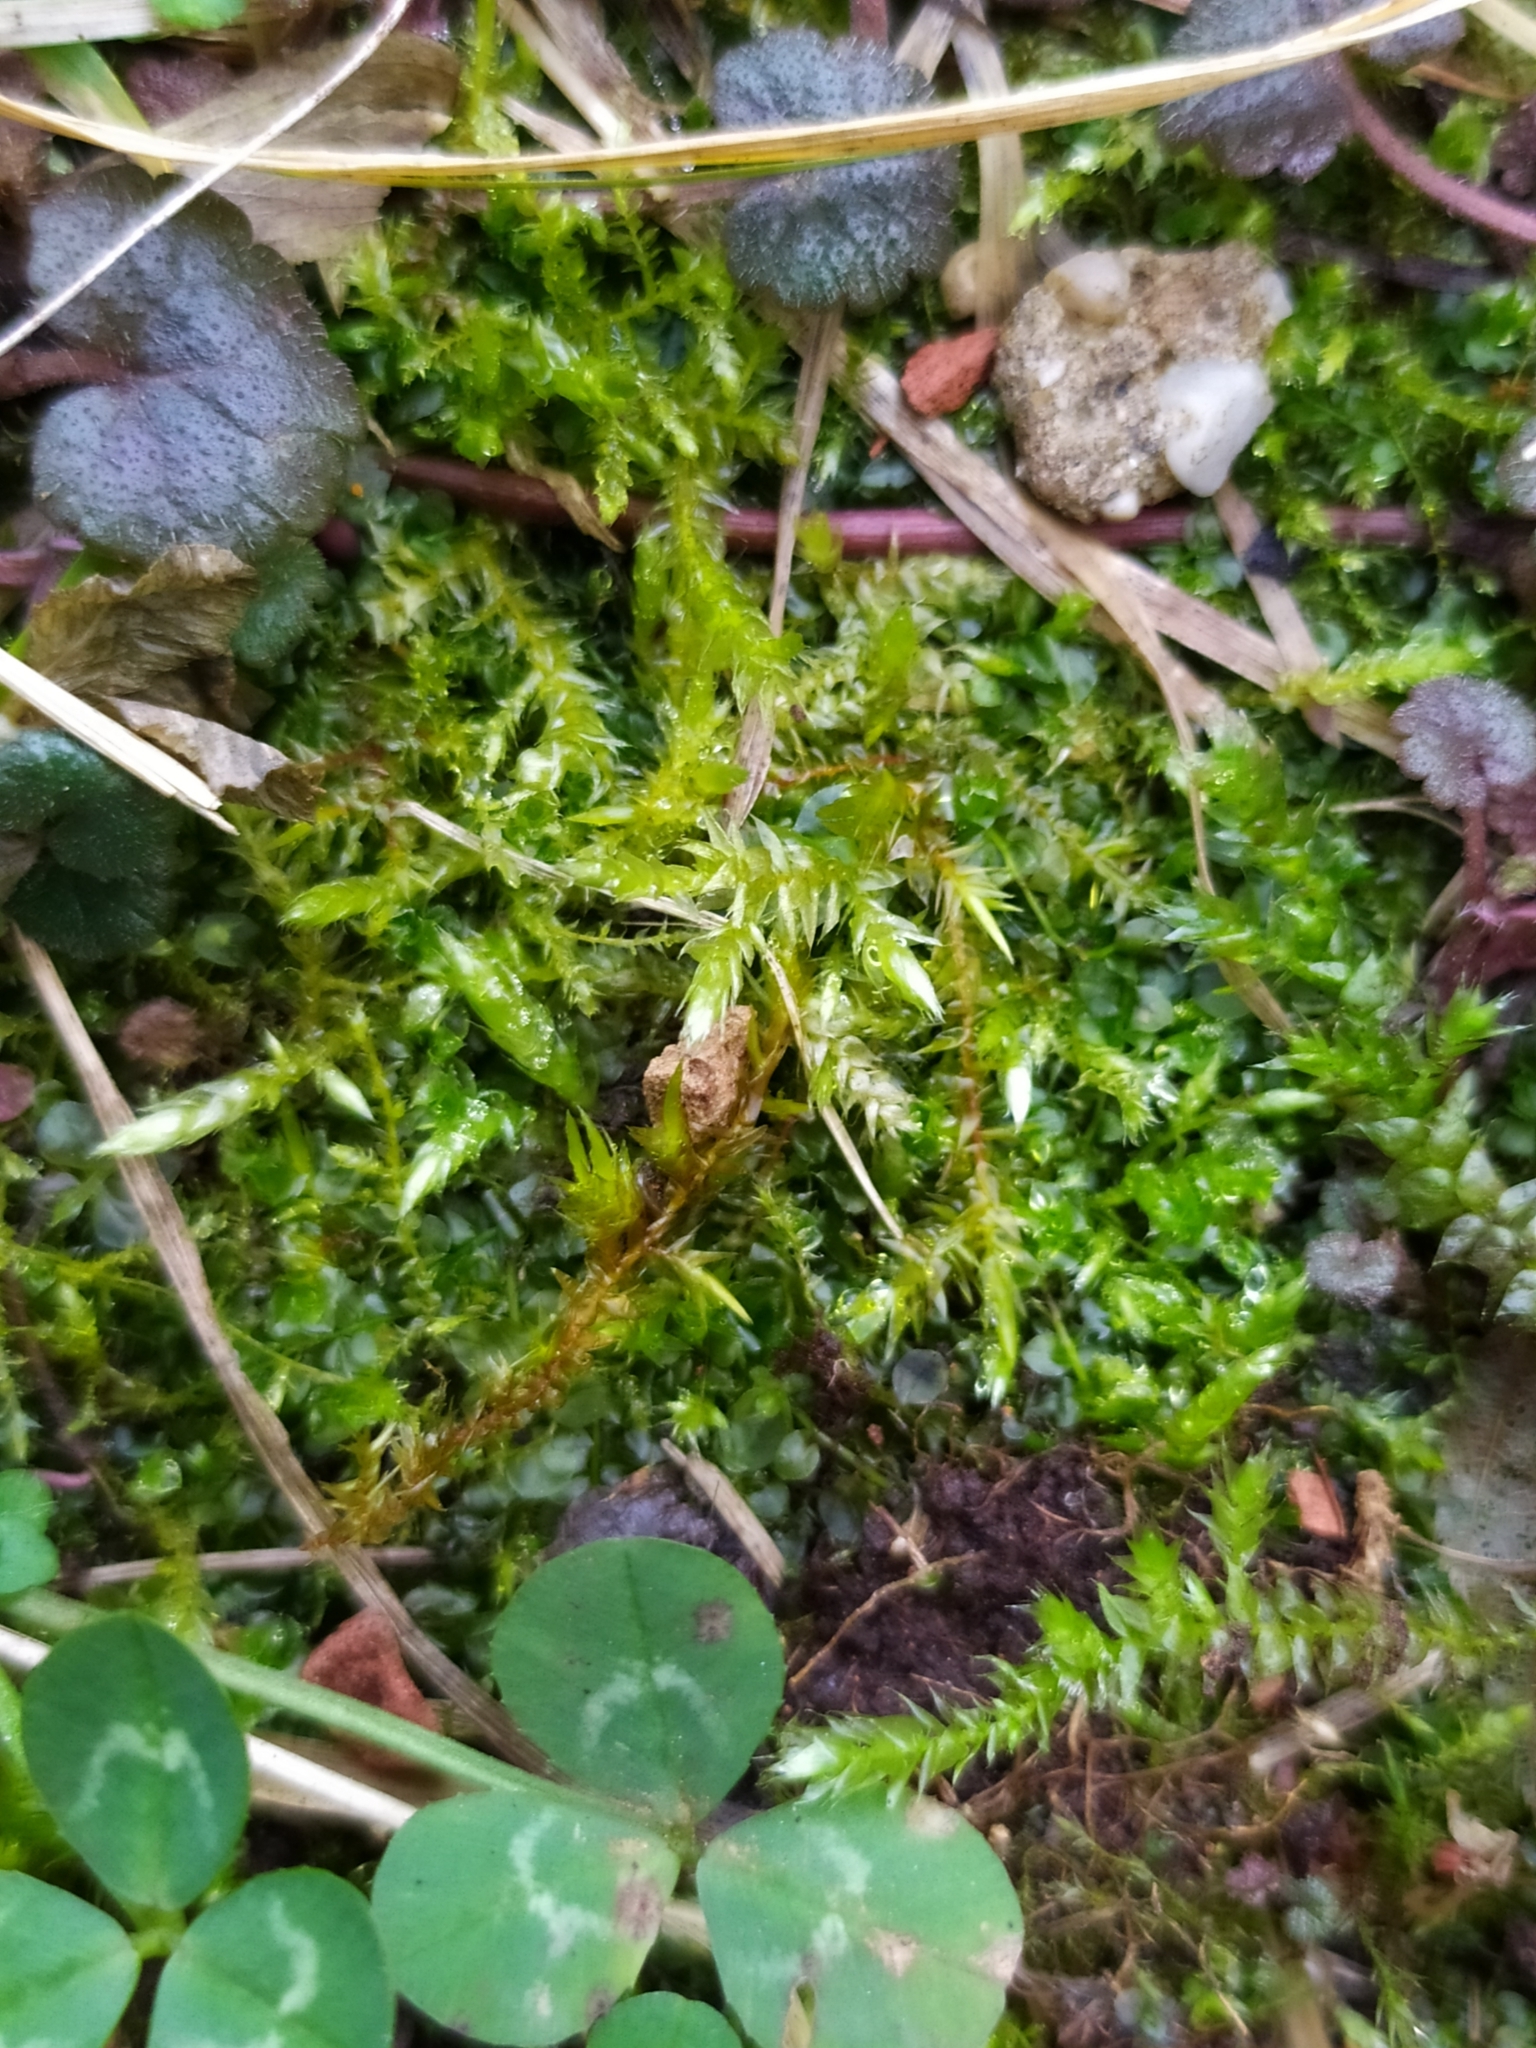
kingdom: Plantae
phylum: Bryophyta
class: Bryopsida
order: Hypnales
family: Brachytheciaceae
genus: Brachythecium
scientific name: Brachythecium rutabulum
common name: Rough-stalked feather-moss
